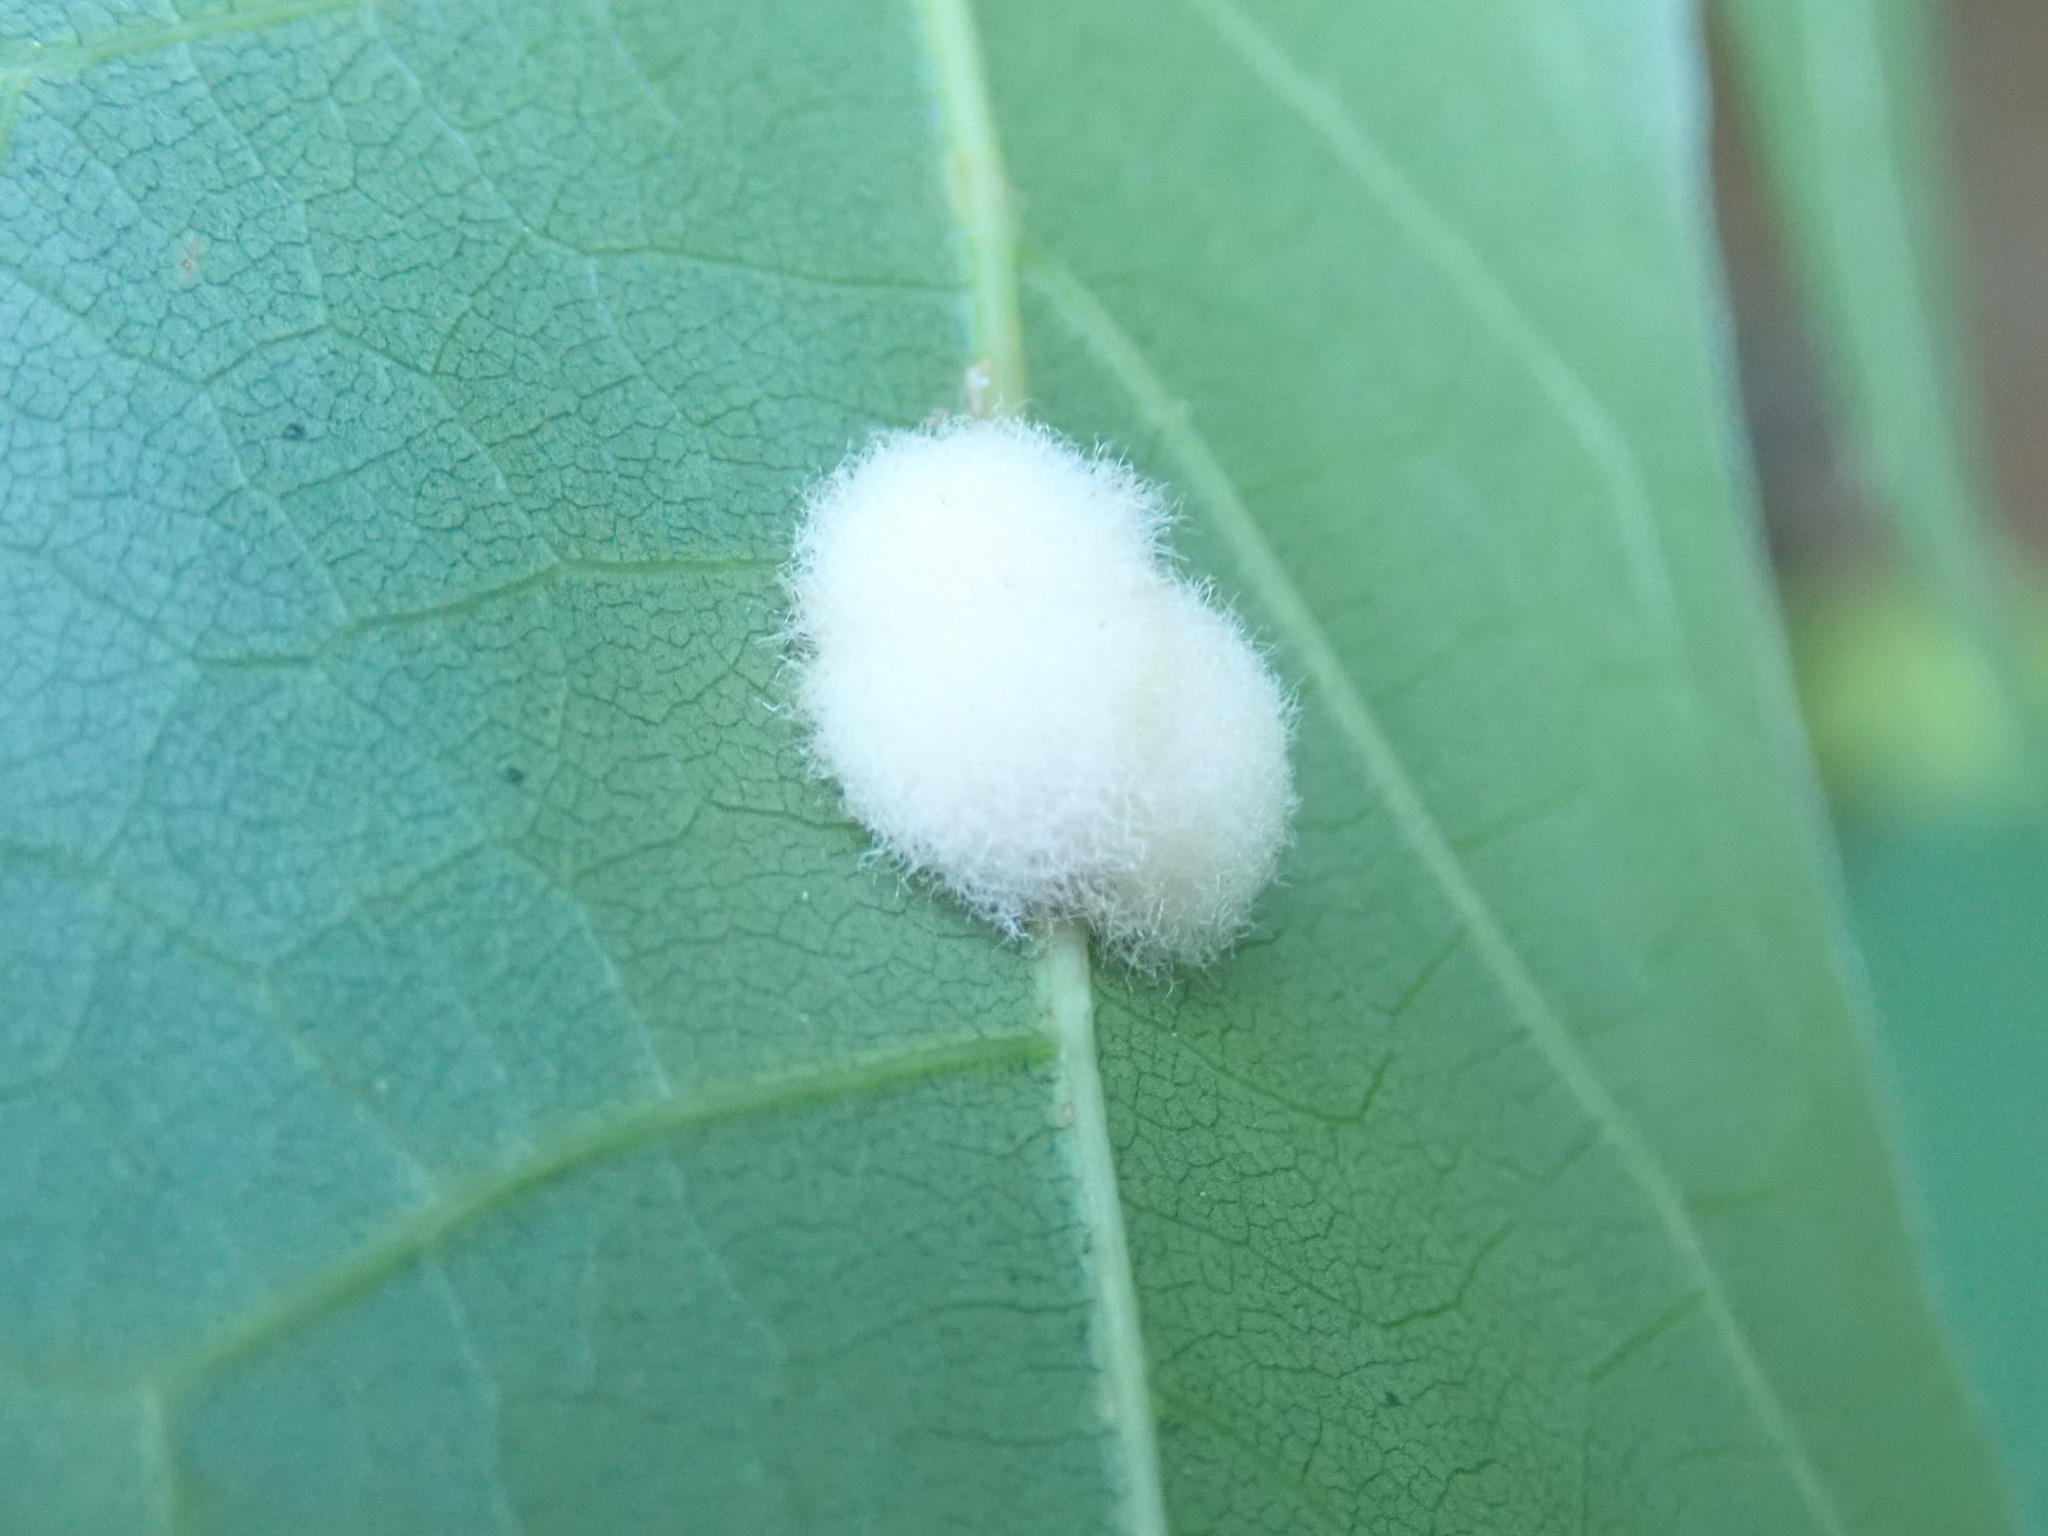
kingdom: Animalia
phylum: Arthropoda
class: Insecta
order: Hymenoptera
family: Cynipidae
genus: Callirhytis
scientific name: Callirhytis
